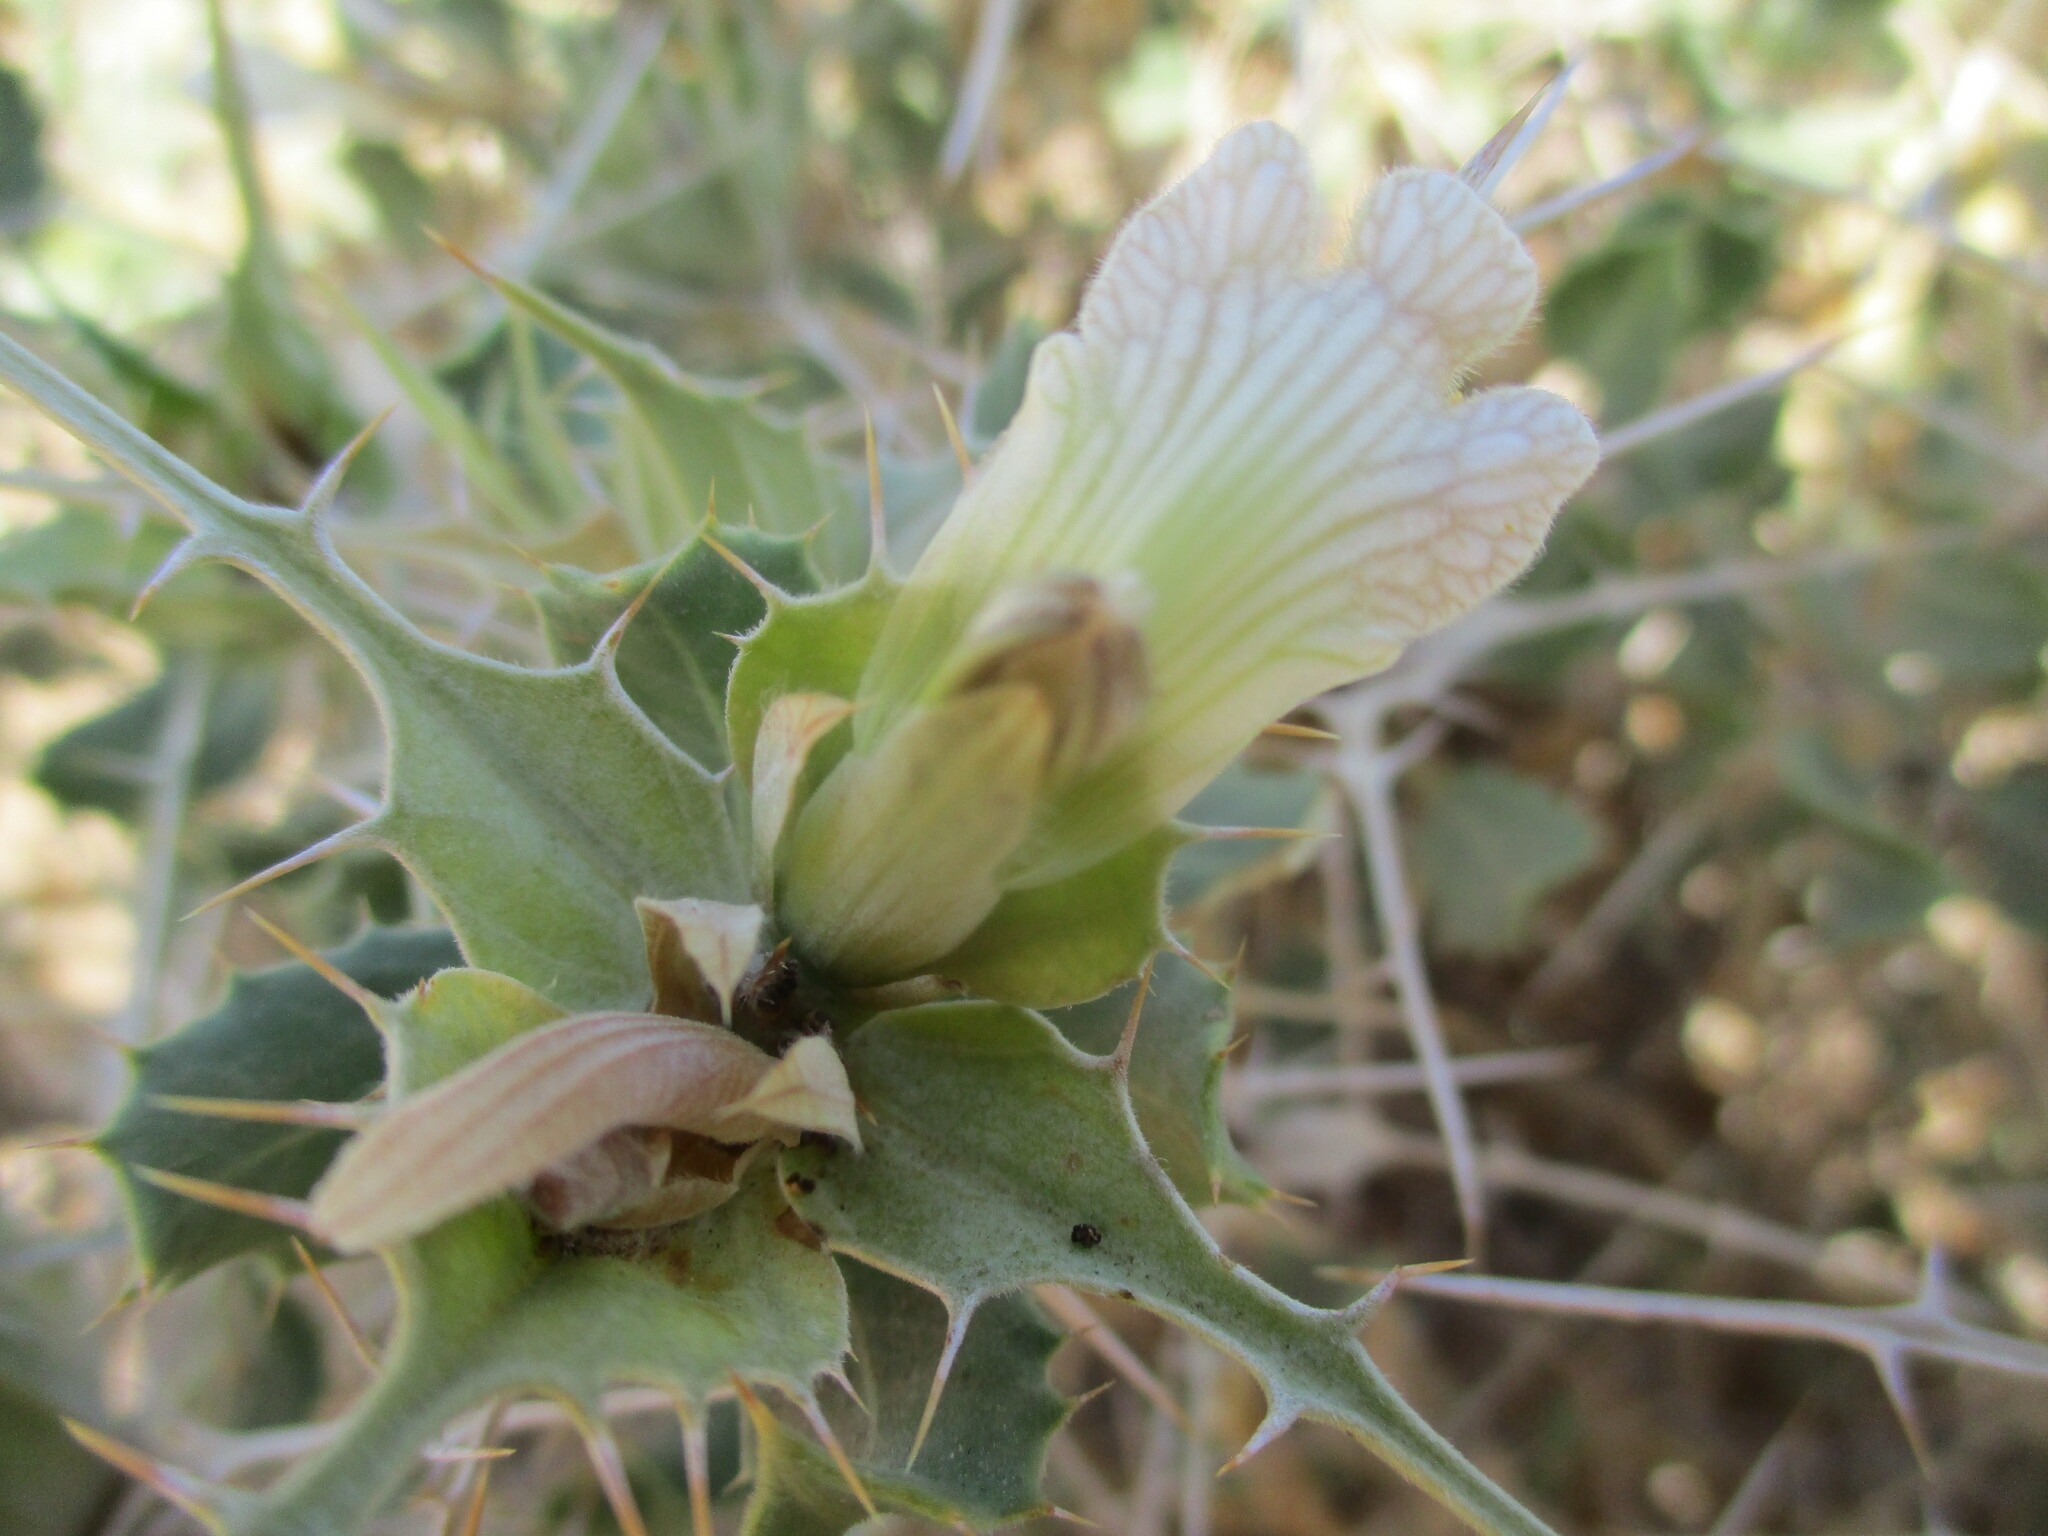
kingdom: Plantae
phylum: Tracheophyta
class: Magnoliopsida
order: Lamiales
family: Acanthaceae
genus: Blepharis
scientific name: Blepharis ferox
